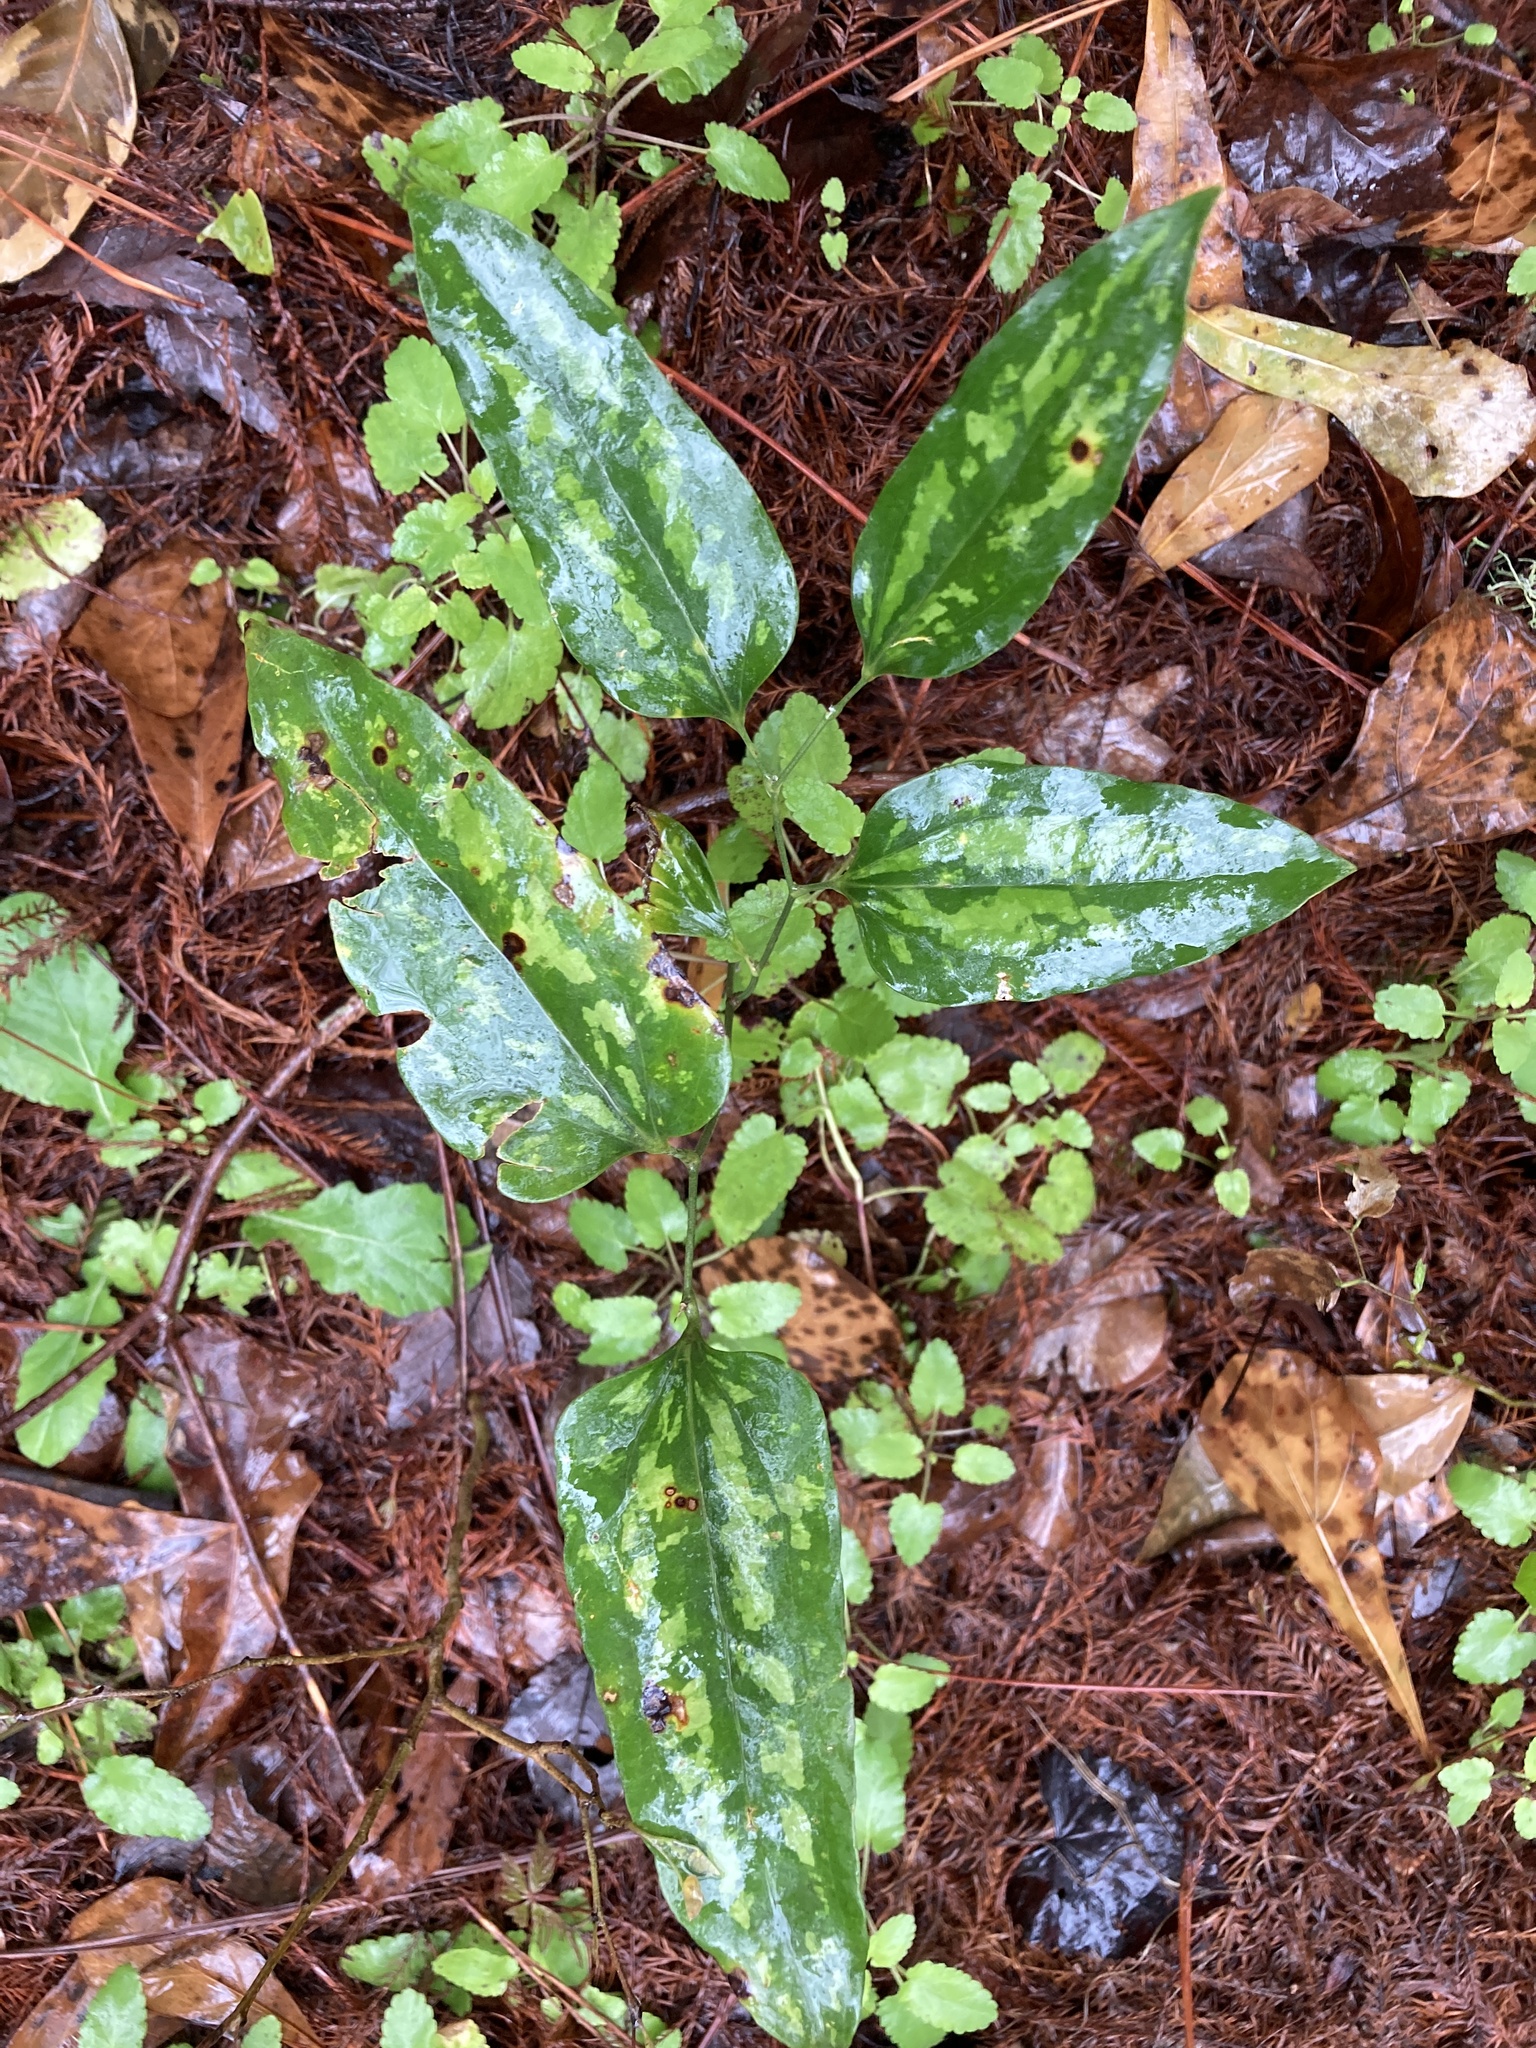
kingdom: Plantae
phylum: Tracheophyta
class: Liliopsida
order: Liliales
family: Smilacaceae
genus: Smilax
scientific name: Smilax maritima
